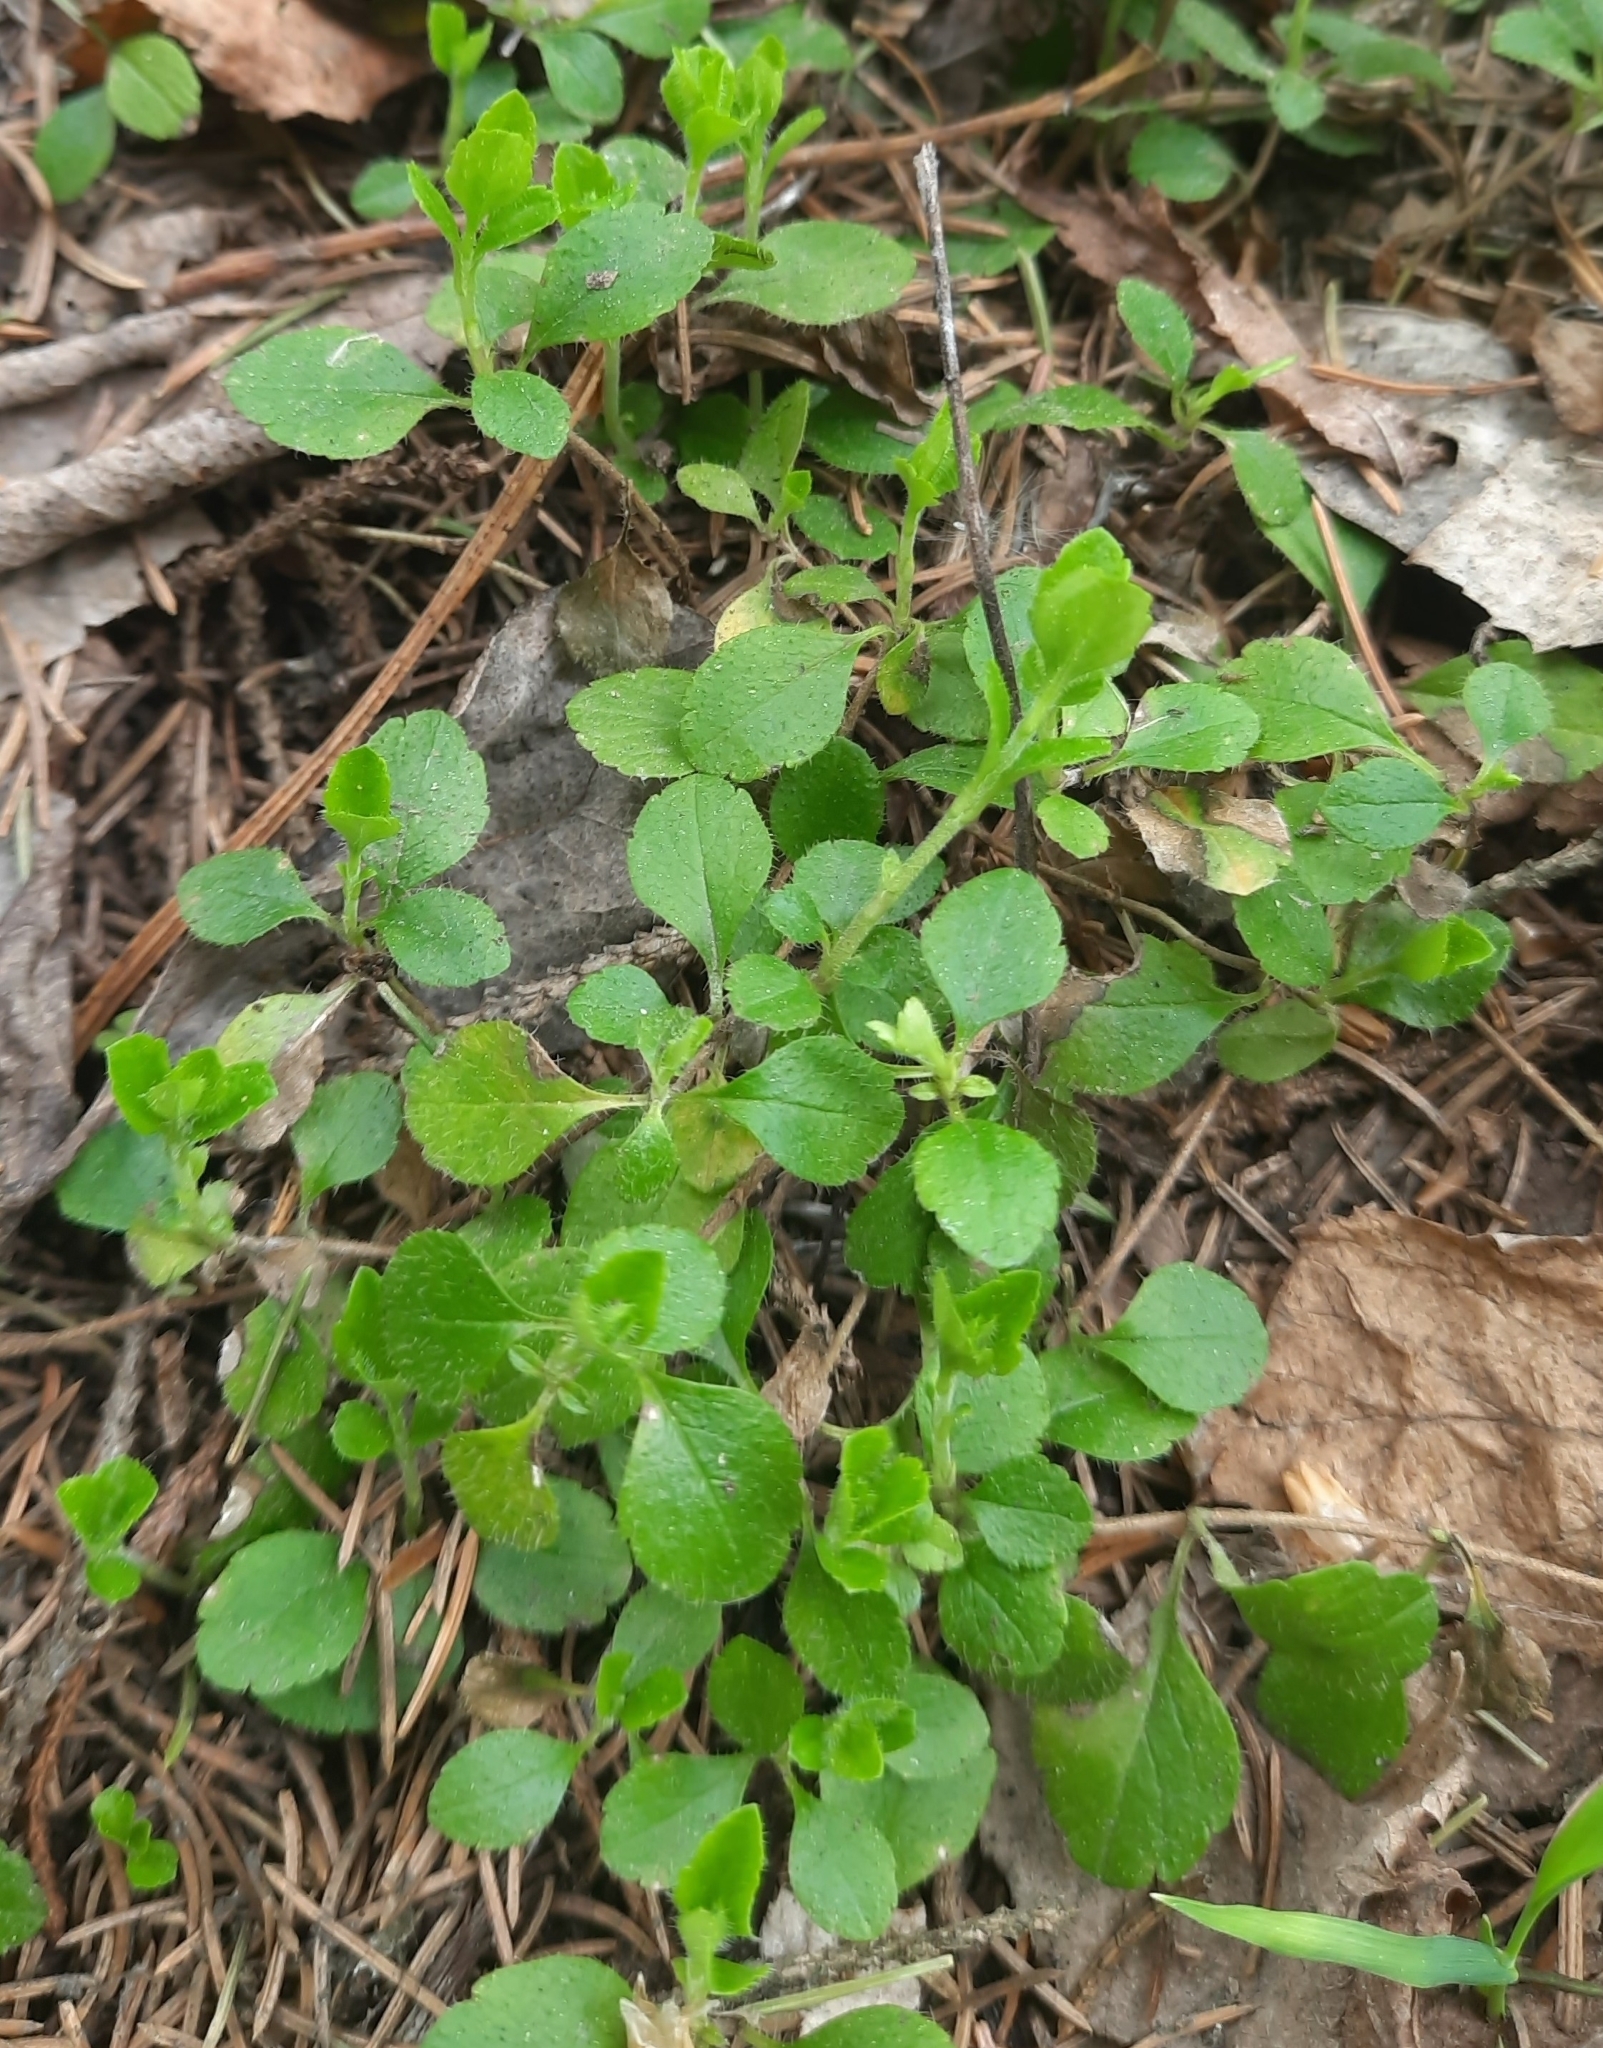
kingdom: Plantae
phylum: Tracheophyta
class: Magnoliopsida
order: Dipsacales
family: Caprifoliaceae
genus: Linnaea
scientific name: Linnaea borealis
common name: Twinflower
